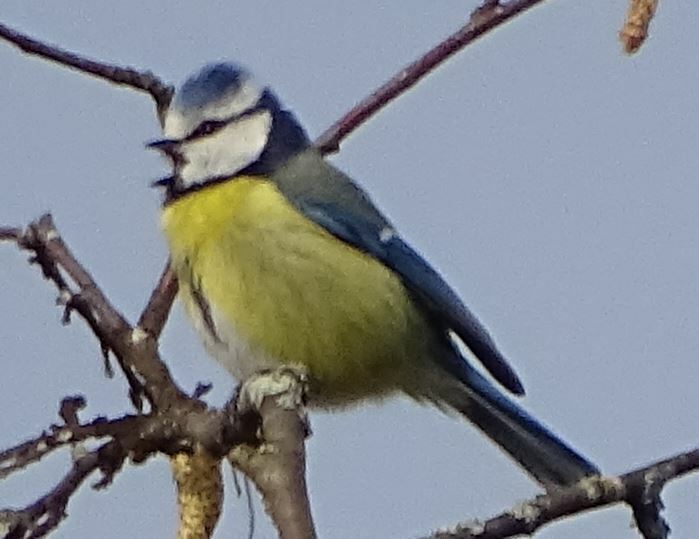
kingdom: Animalia
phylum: Chordata
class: Aves
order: Passeriformes
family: Paridae
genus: Cyanistes
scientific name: Cyanistes caeruleus
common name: Eurasian blue tit
